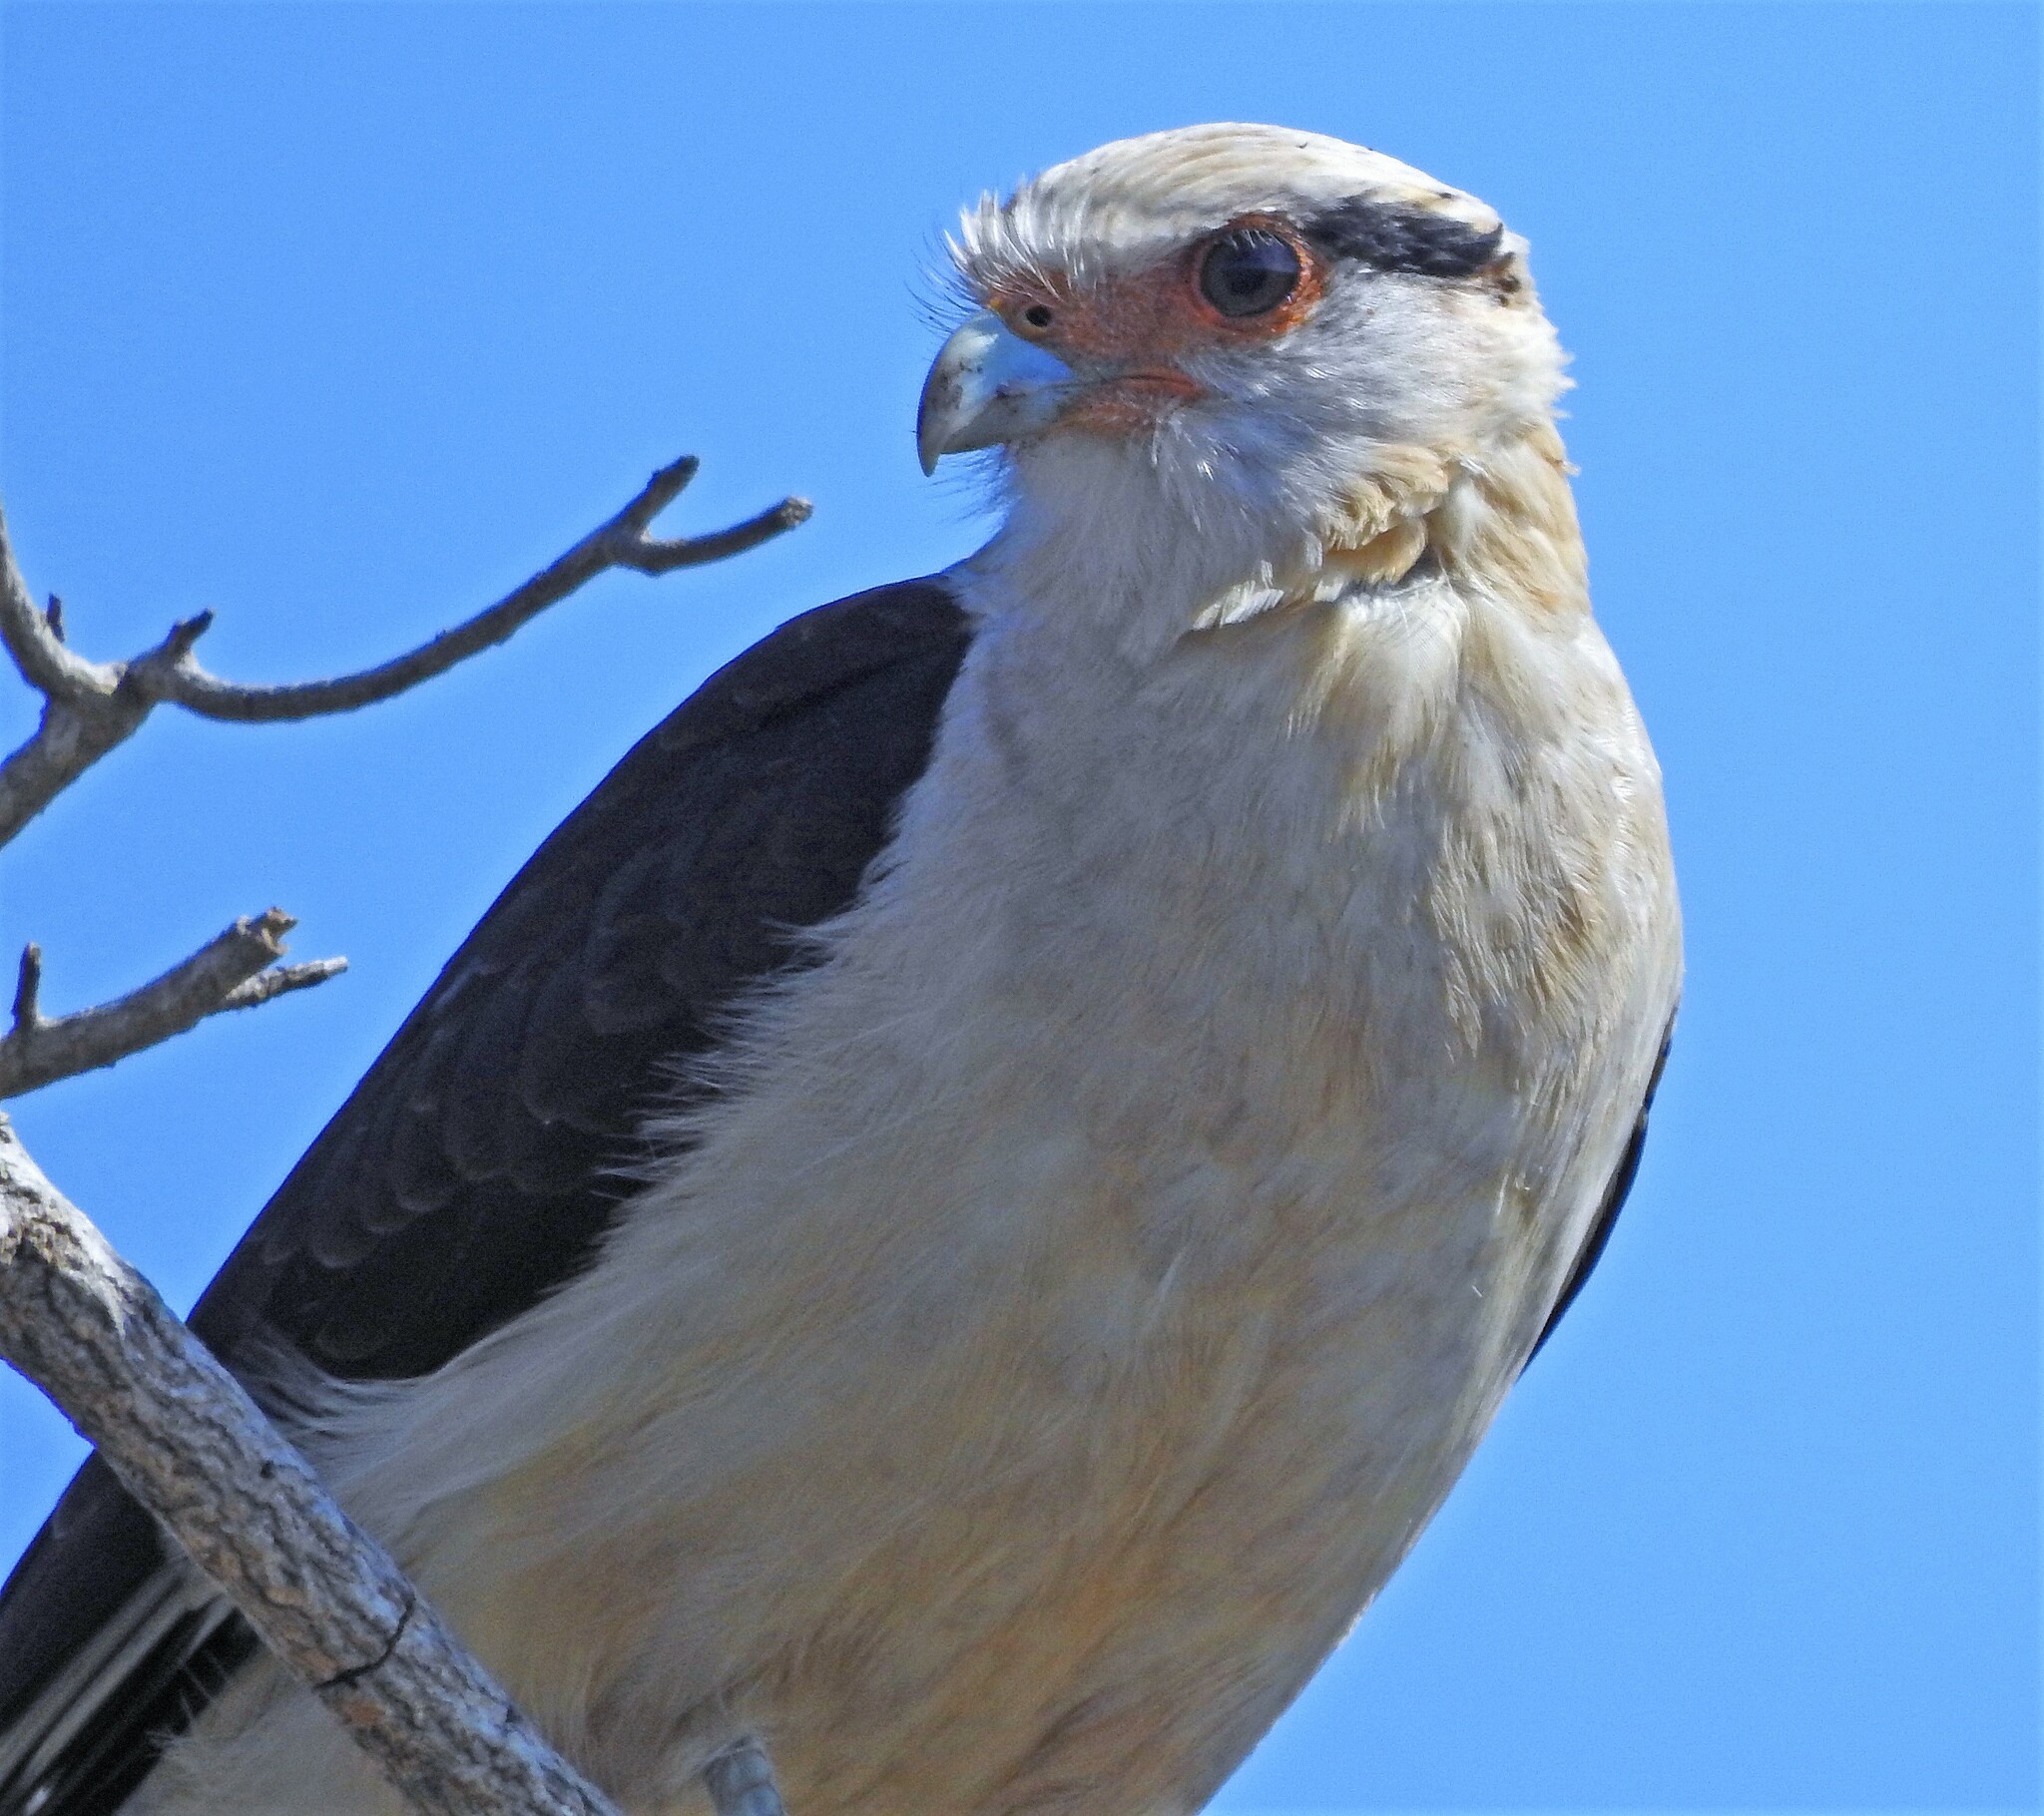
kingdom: Animalia
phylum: Chordata
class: Aves
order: Falconiformes
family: Falconidae
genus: Daptrius
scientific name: Daptrius
